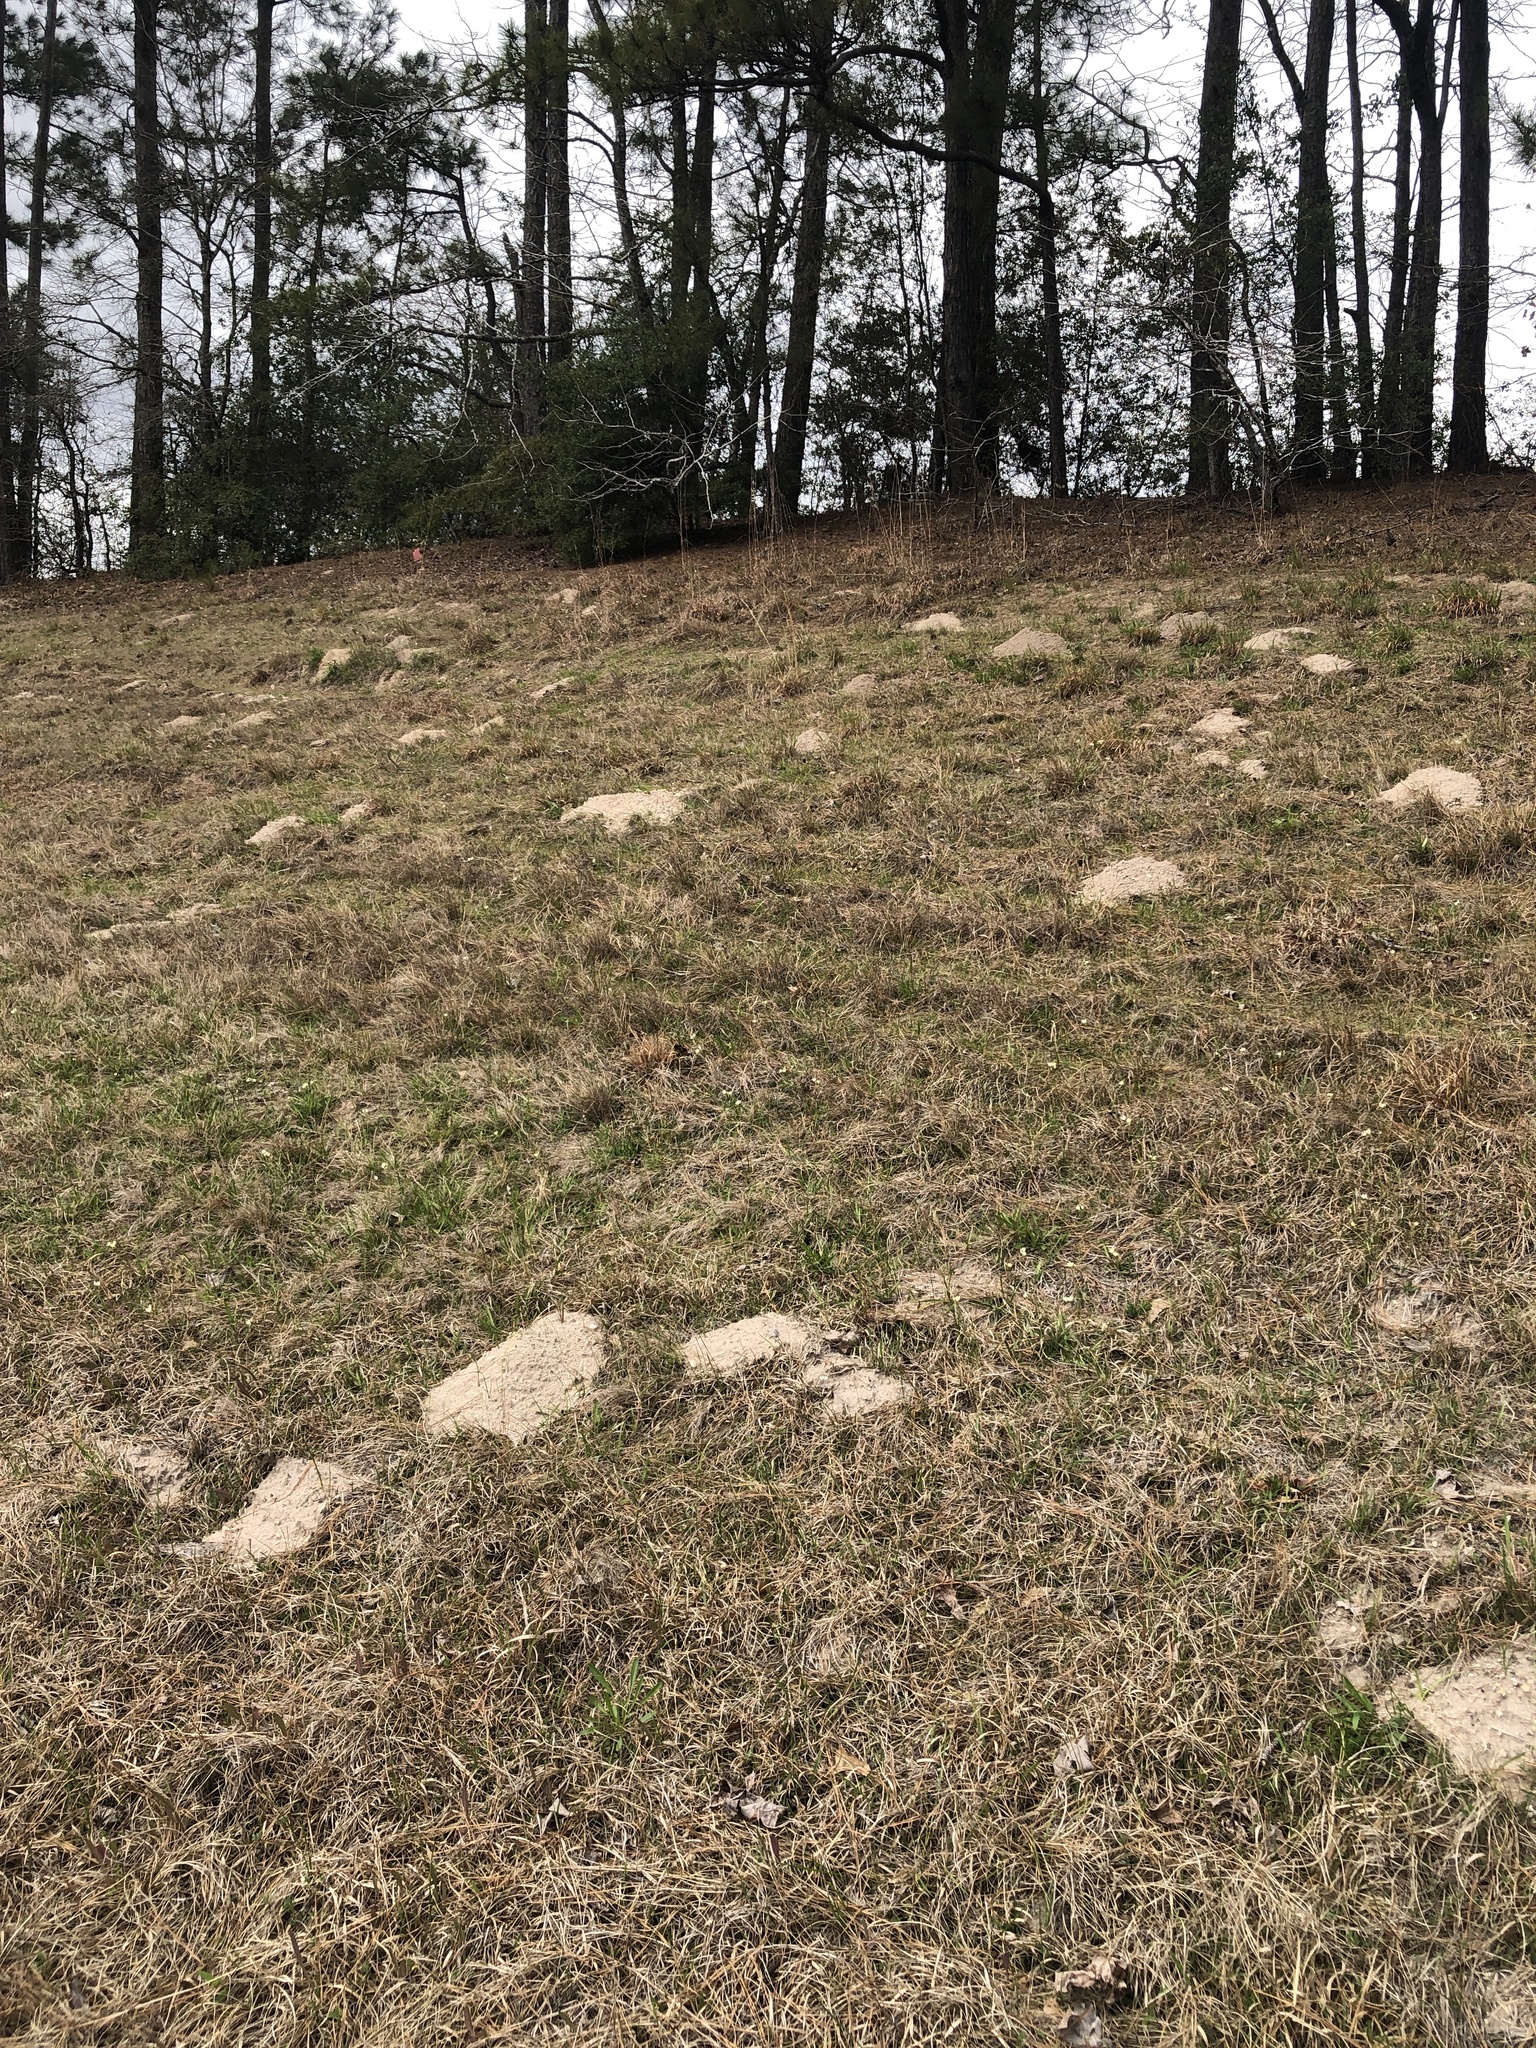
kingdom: Animalia
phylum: Chordata
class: Mammalia
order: Rodentia
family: Geomyidae
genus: Geomys
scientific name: Geomys breviceps
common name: Baird's pocket gopher
